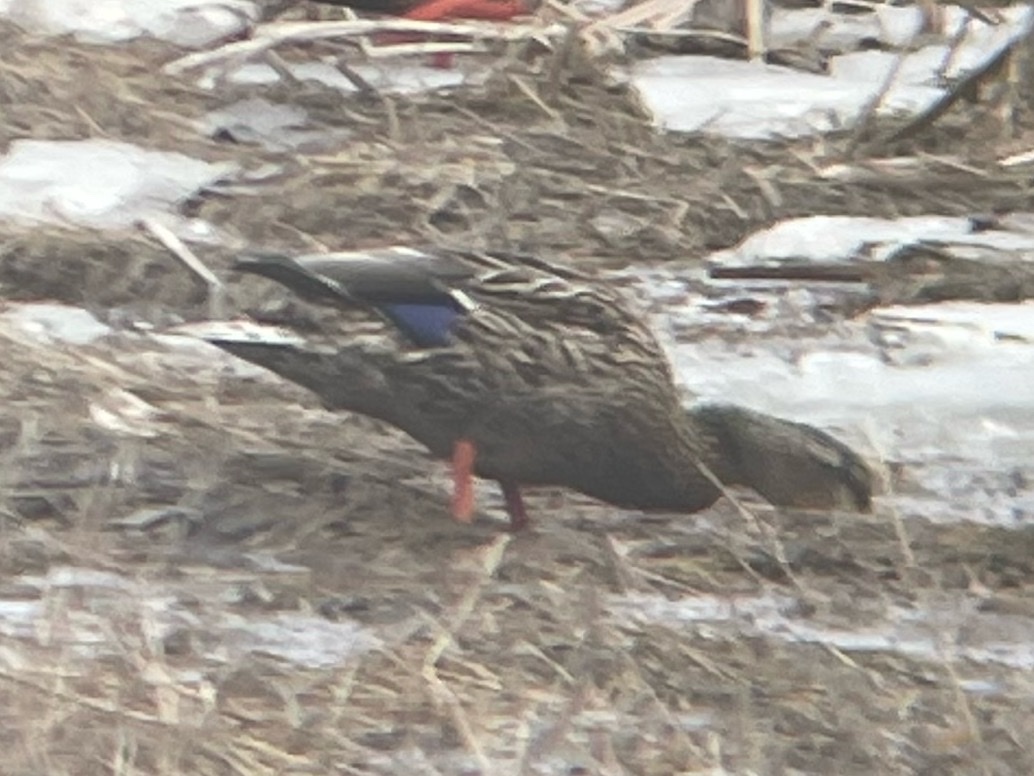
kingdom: Animalia
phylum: Chordata
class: Aves
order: Anseriformes
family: Anatidae
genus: Anas
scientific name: Anas rubripes
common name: American black duck
